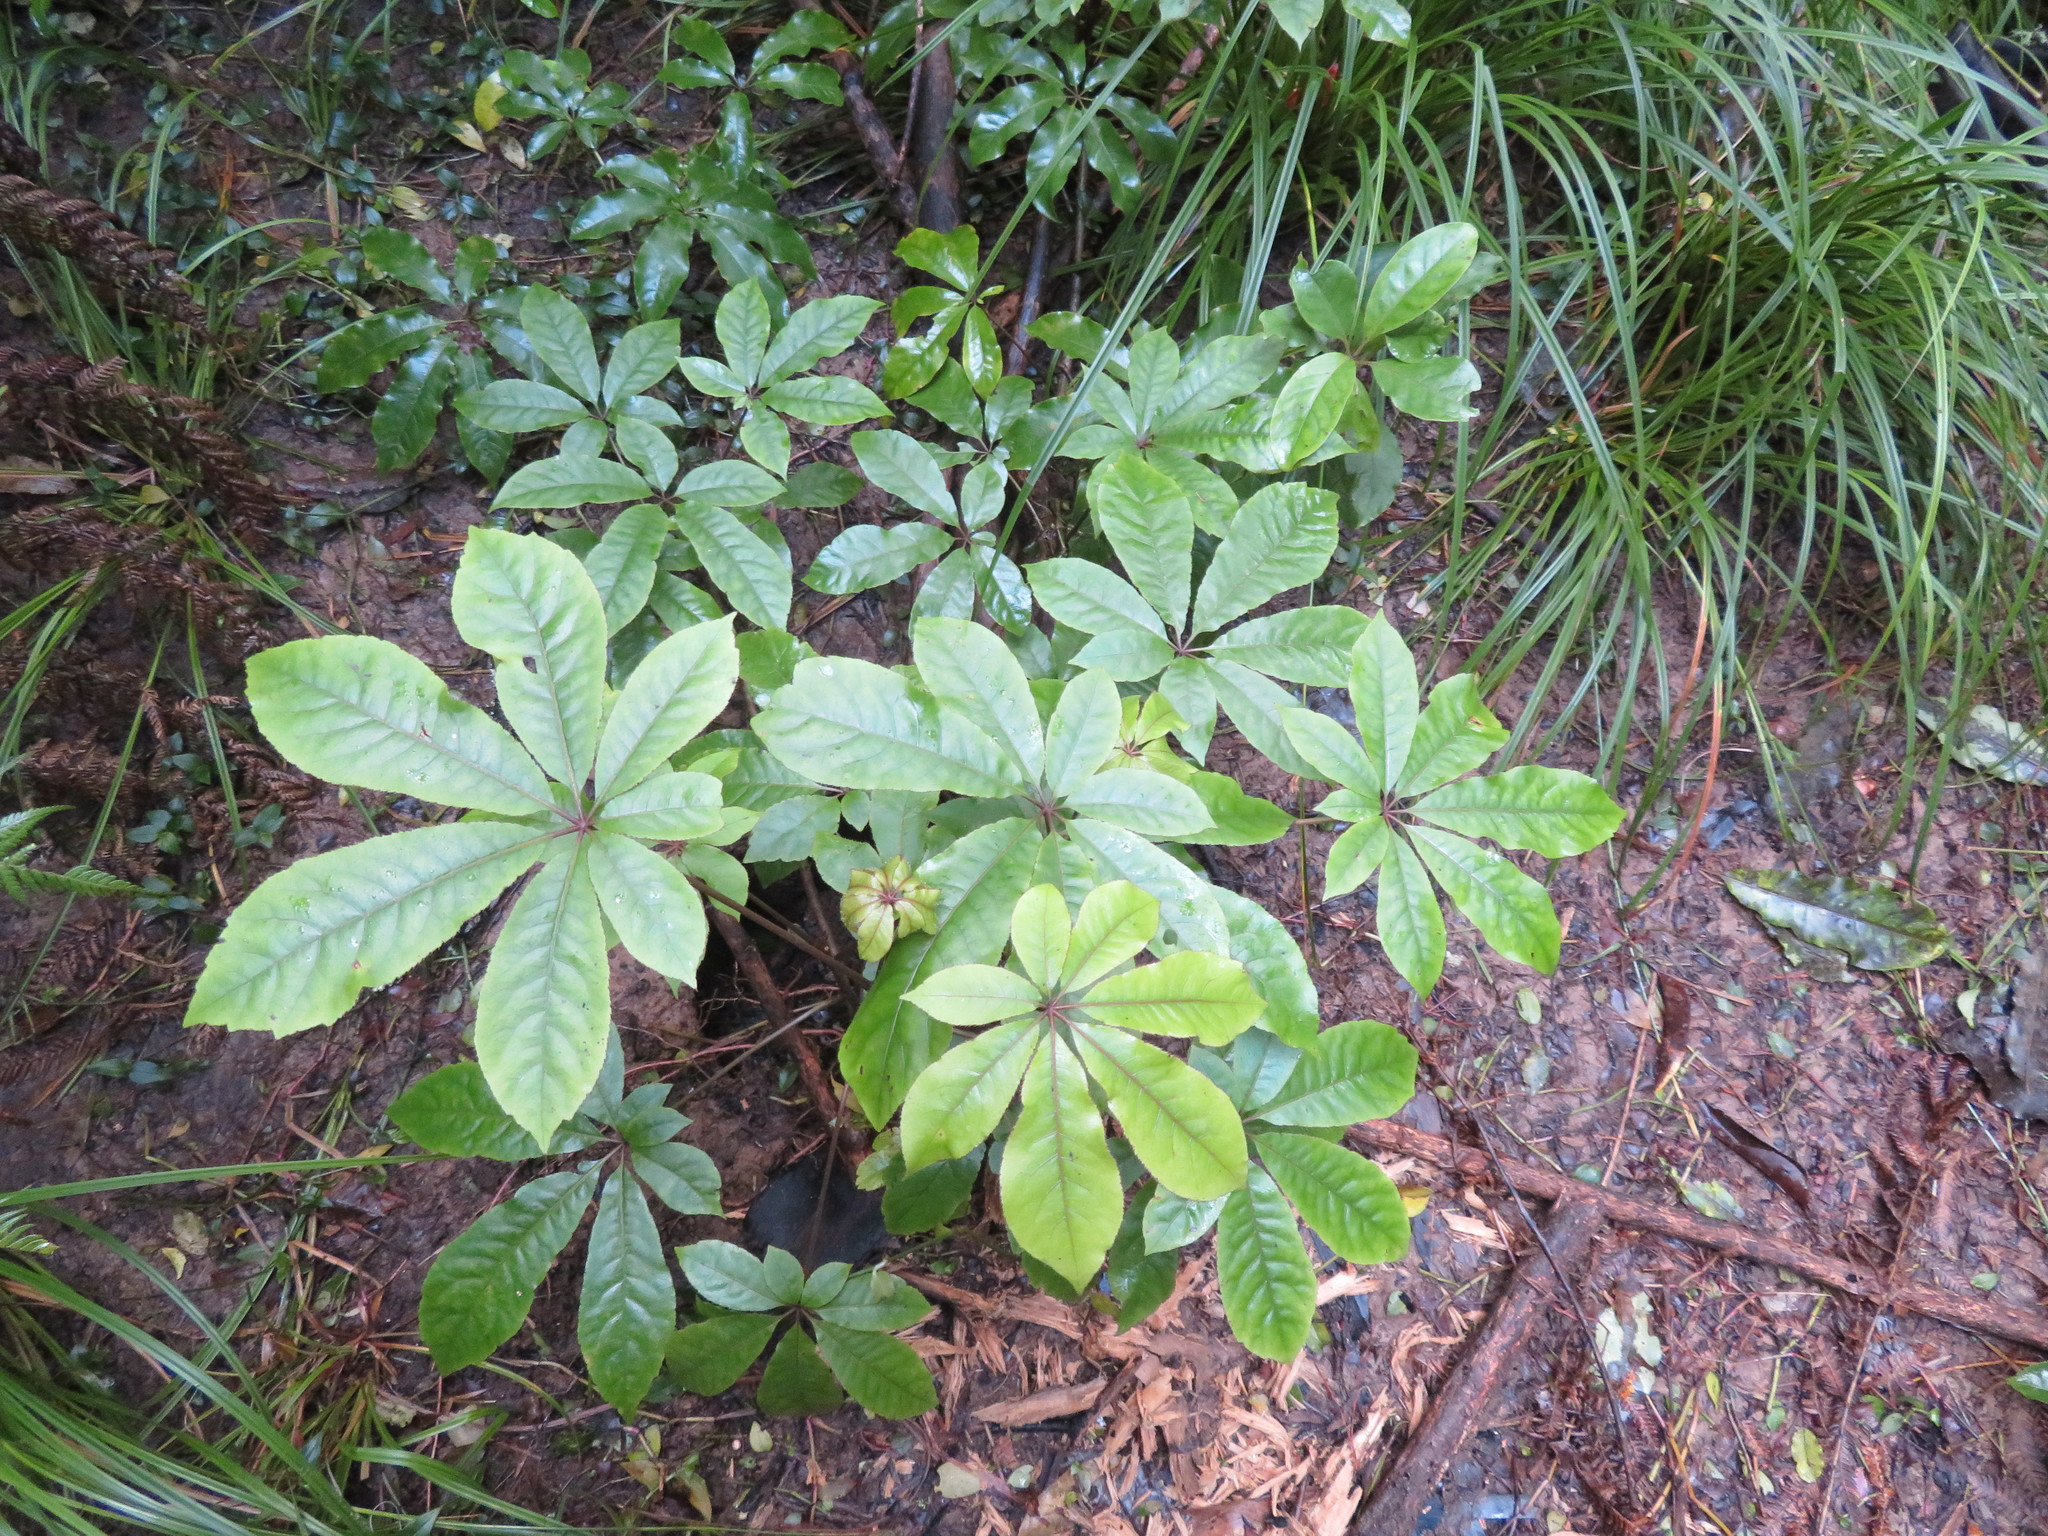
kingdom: Plantae
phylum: Tracheophyta
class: Magnoliopsida
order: Apiales
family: Araliaceae
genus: Schefflera
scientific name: Schefflera digitata
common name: Pate
